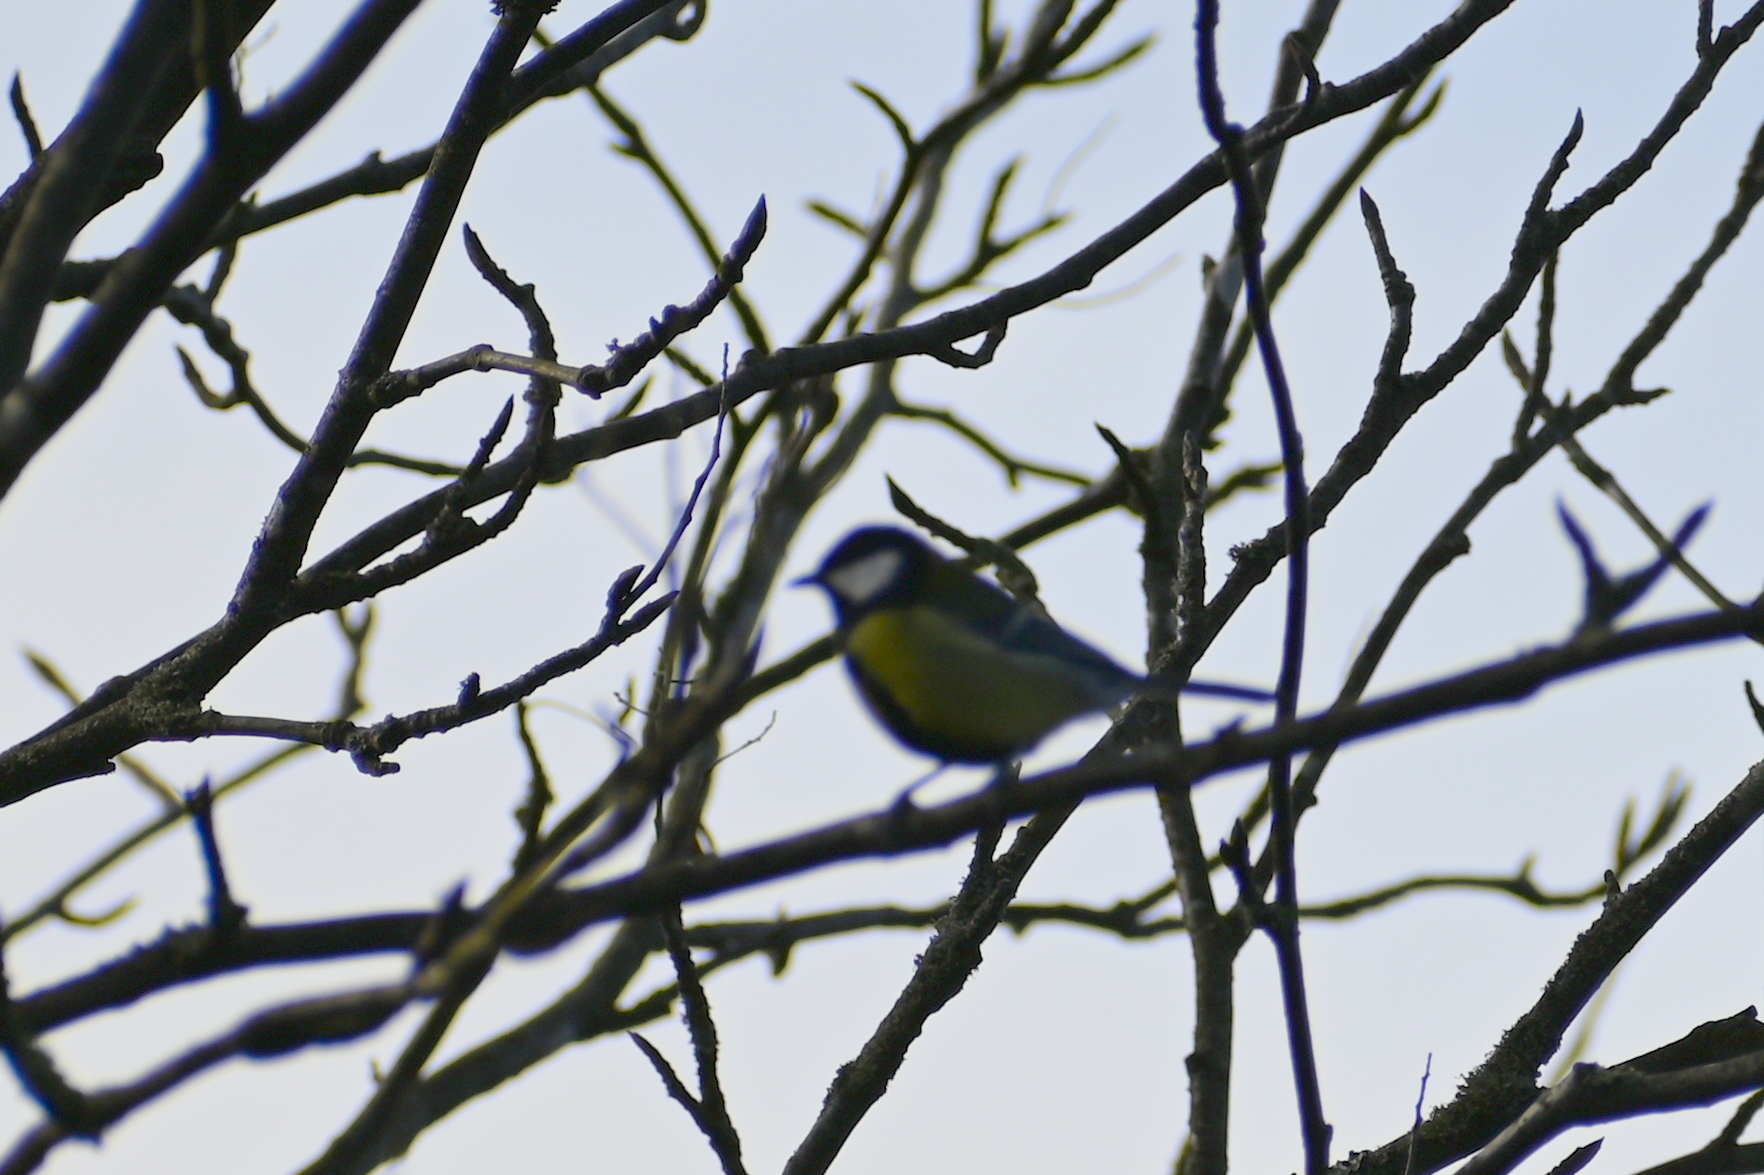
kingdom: Animalia
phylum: Chordata
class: Aves
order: Passeriformes
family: Paridae
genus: Parus
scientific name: Parus major
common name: Great tit
